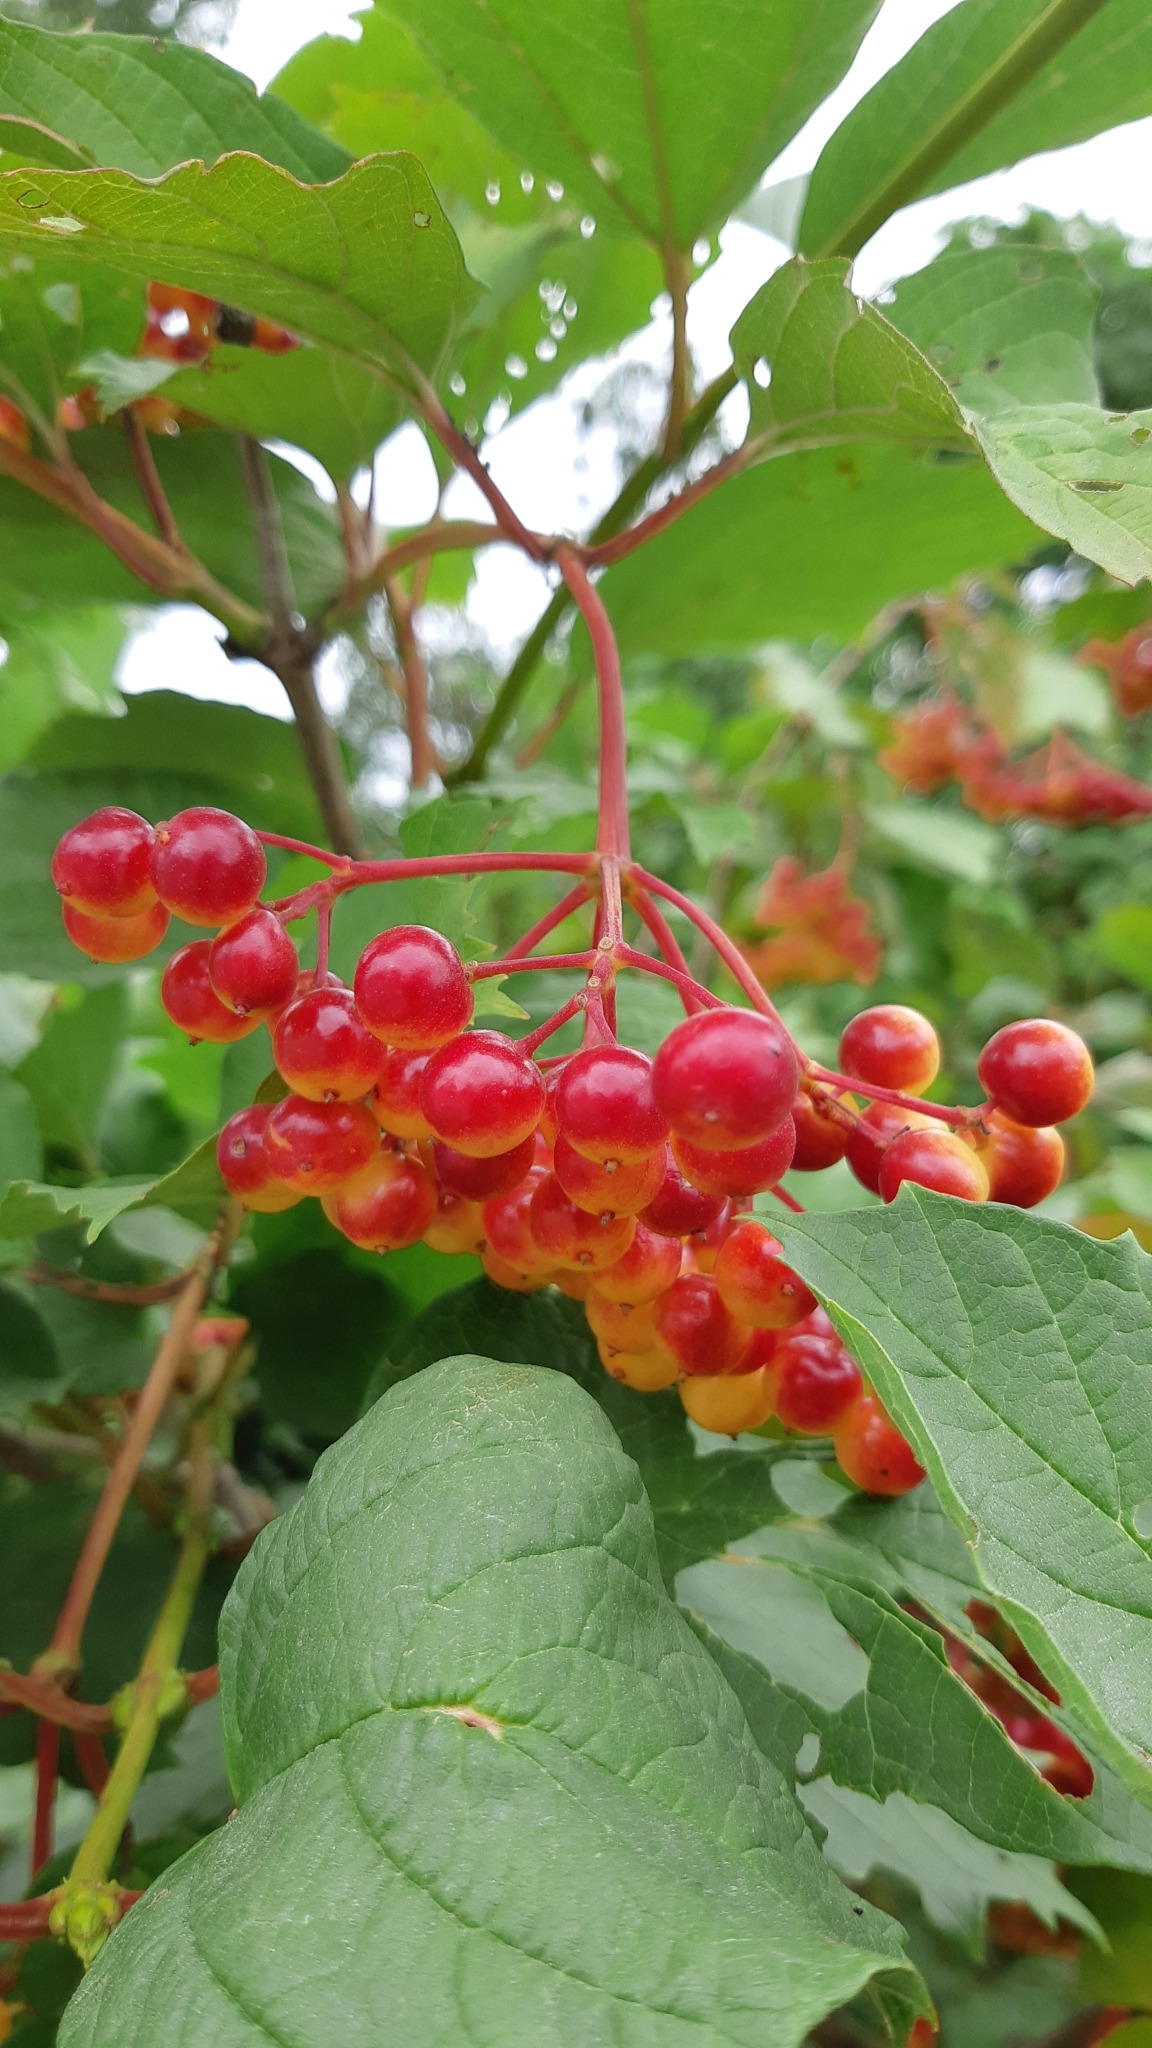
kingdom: Plantae
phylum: Tracheophyta
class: Magnoliopsida
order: Dipsacales
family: Viburnaceae
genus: Viburnum
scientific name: Viburnum opulus
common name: Guelder-rose
